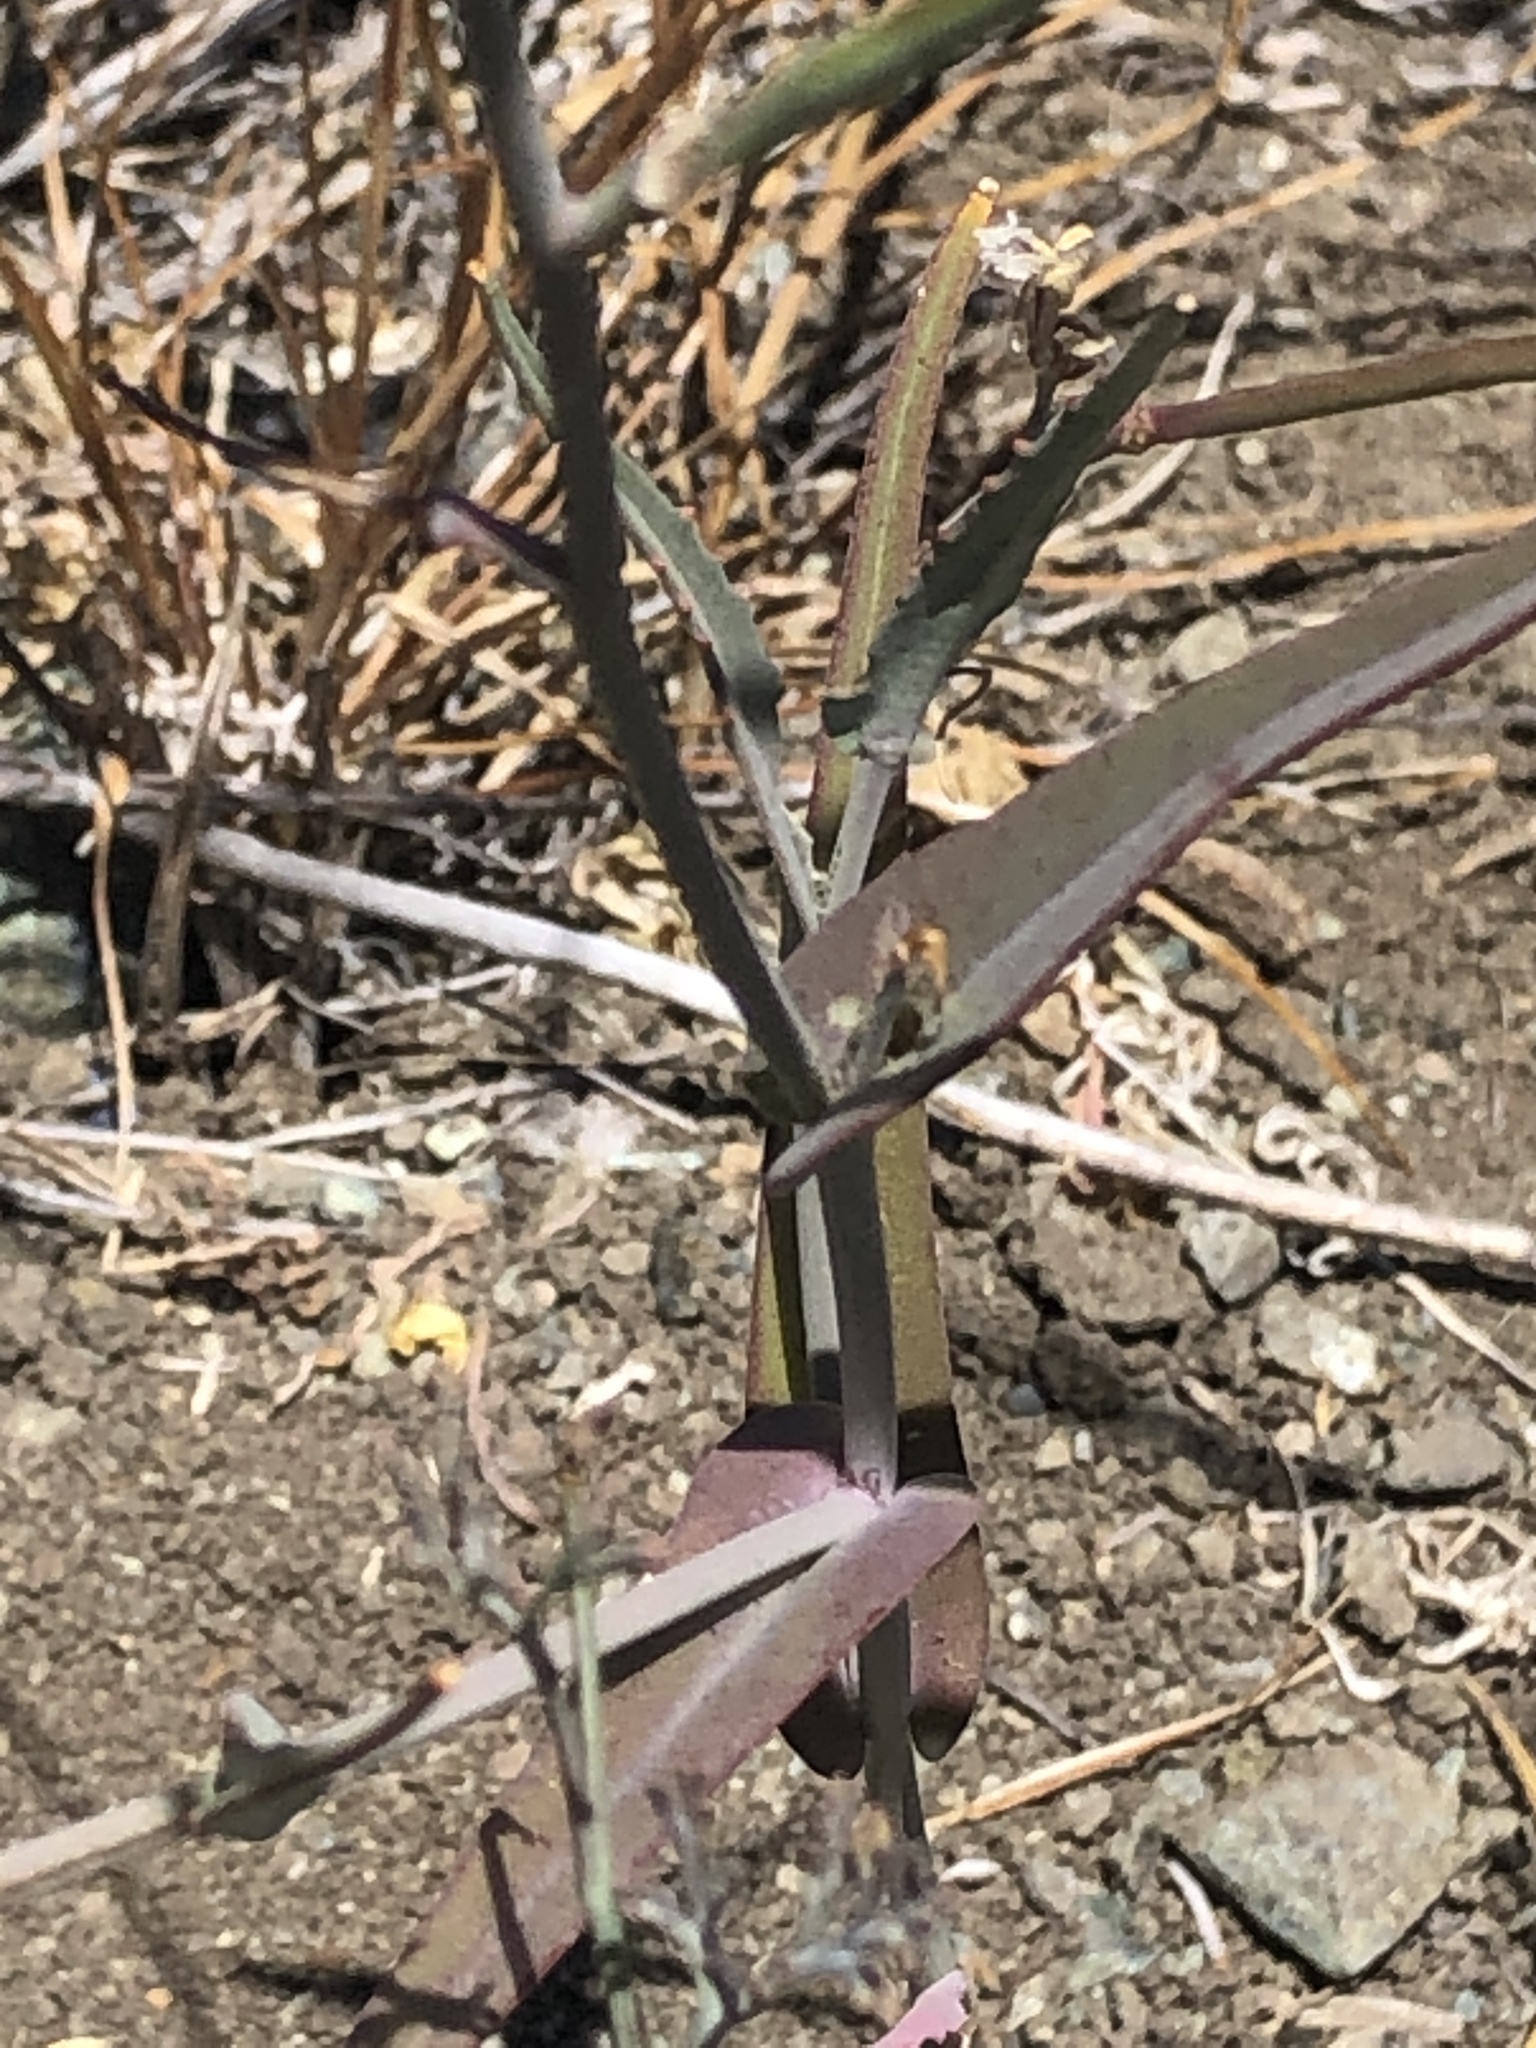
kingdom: Plantae
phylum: Tracheophyta
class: Magnoliopsida
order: Brassicales
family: Brassicaceae
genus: Streptanthus
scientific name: Streptanthus glandulosus
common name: Jewel-flower
